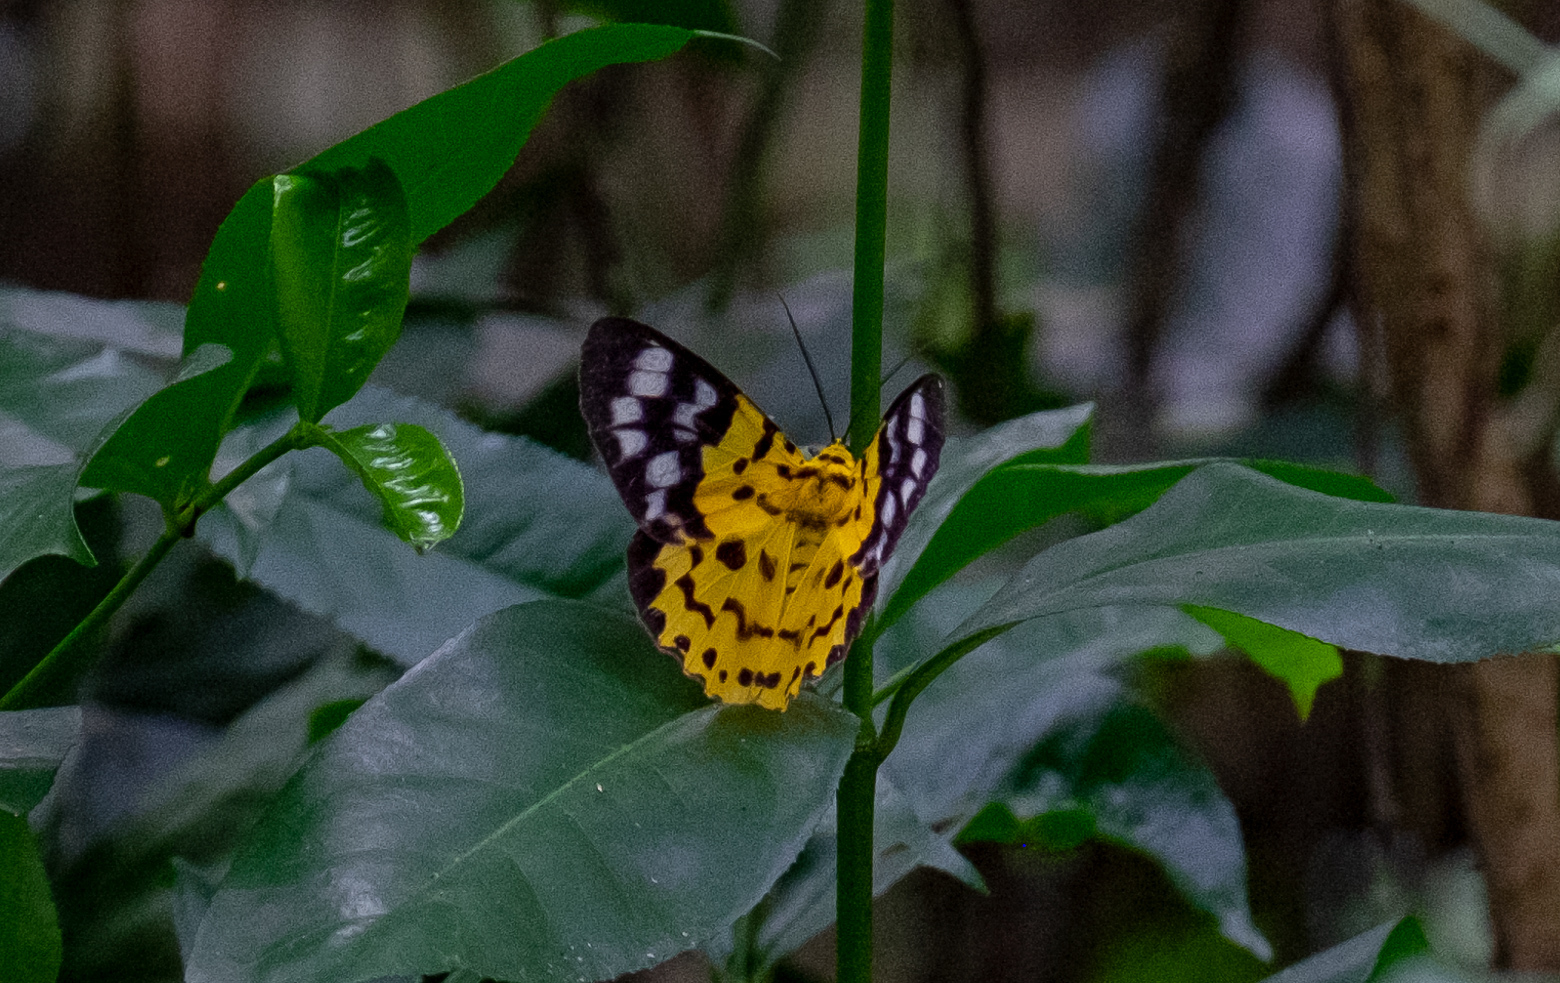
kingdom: Animalia
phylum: Arthropoda
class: Insecta
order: Lepidoptera
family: Geometridae
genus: Dysphania
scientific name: Dysphania militaris
